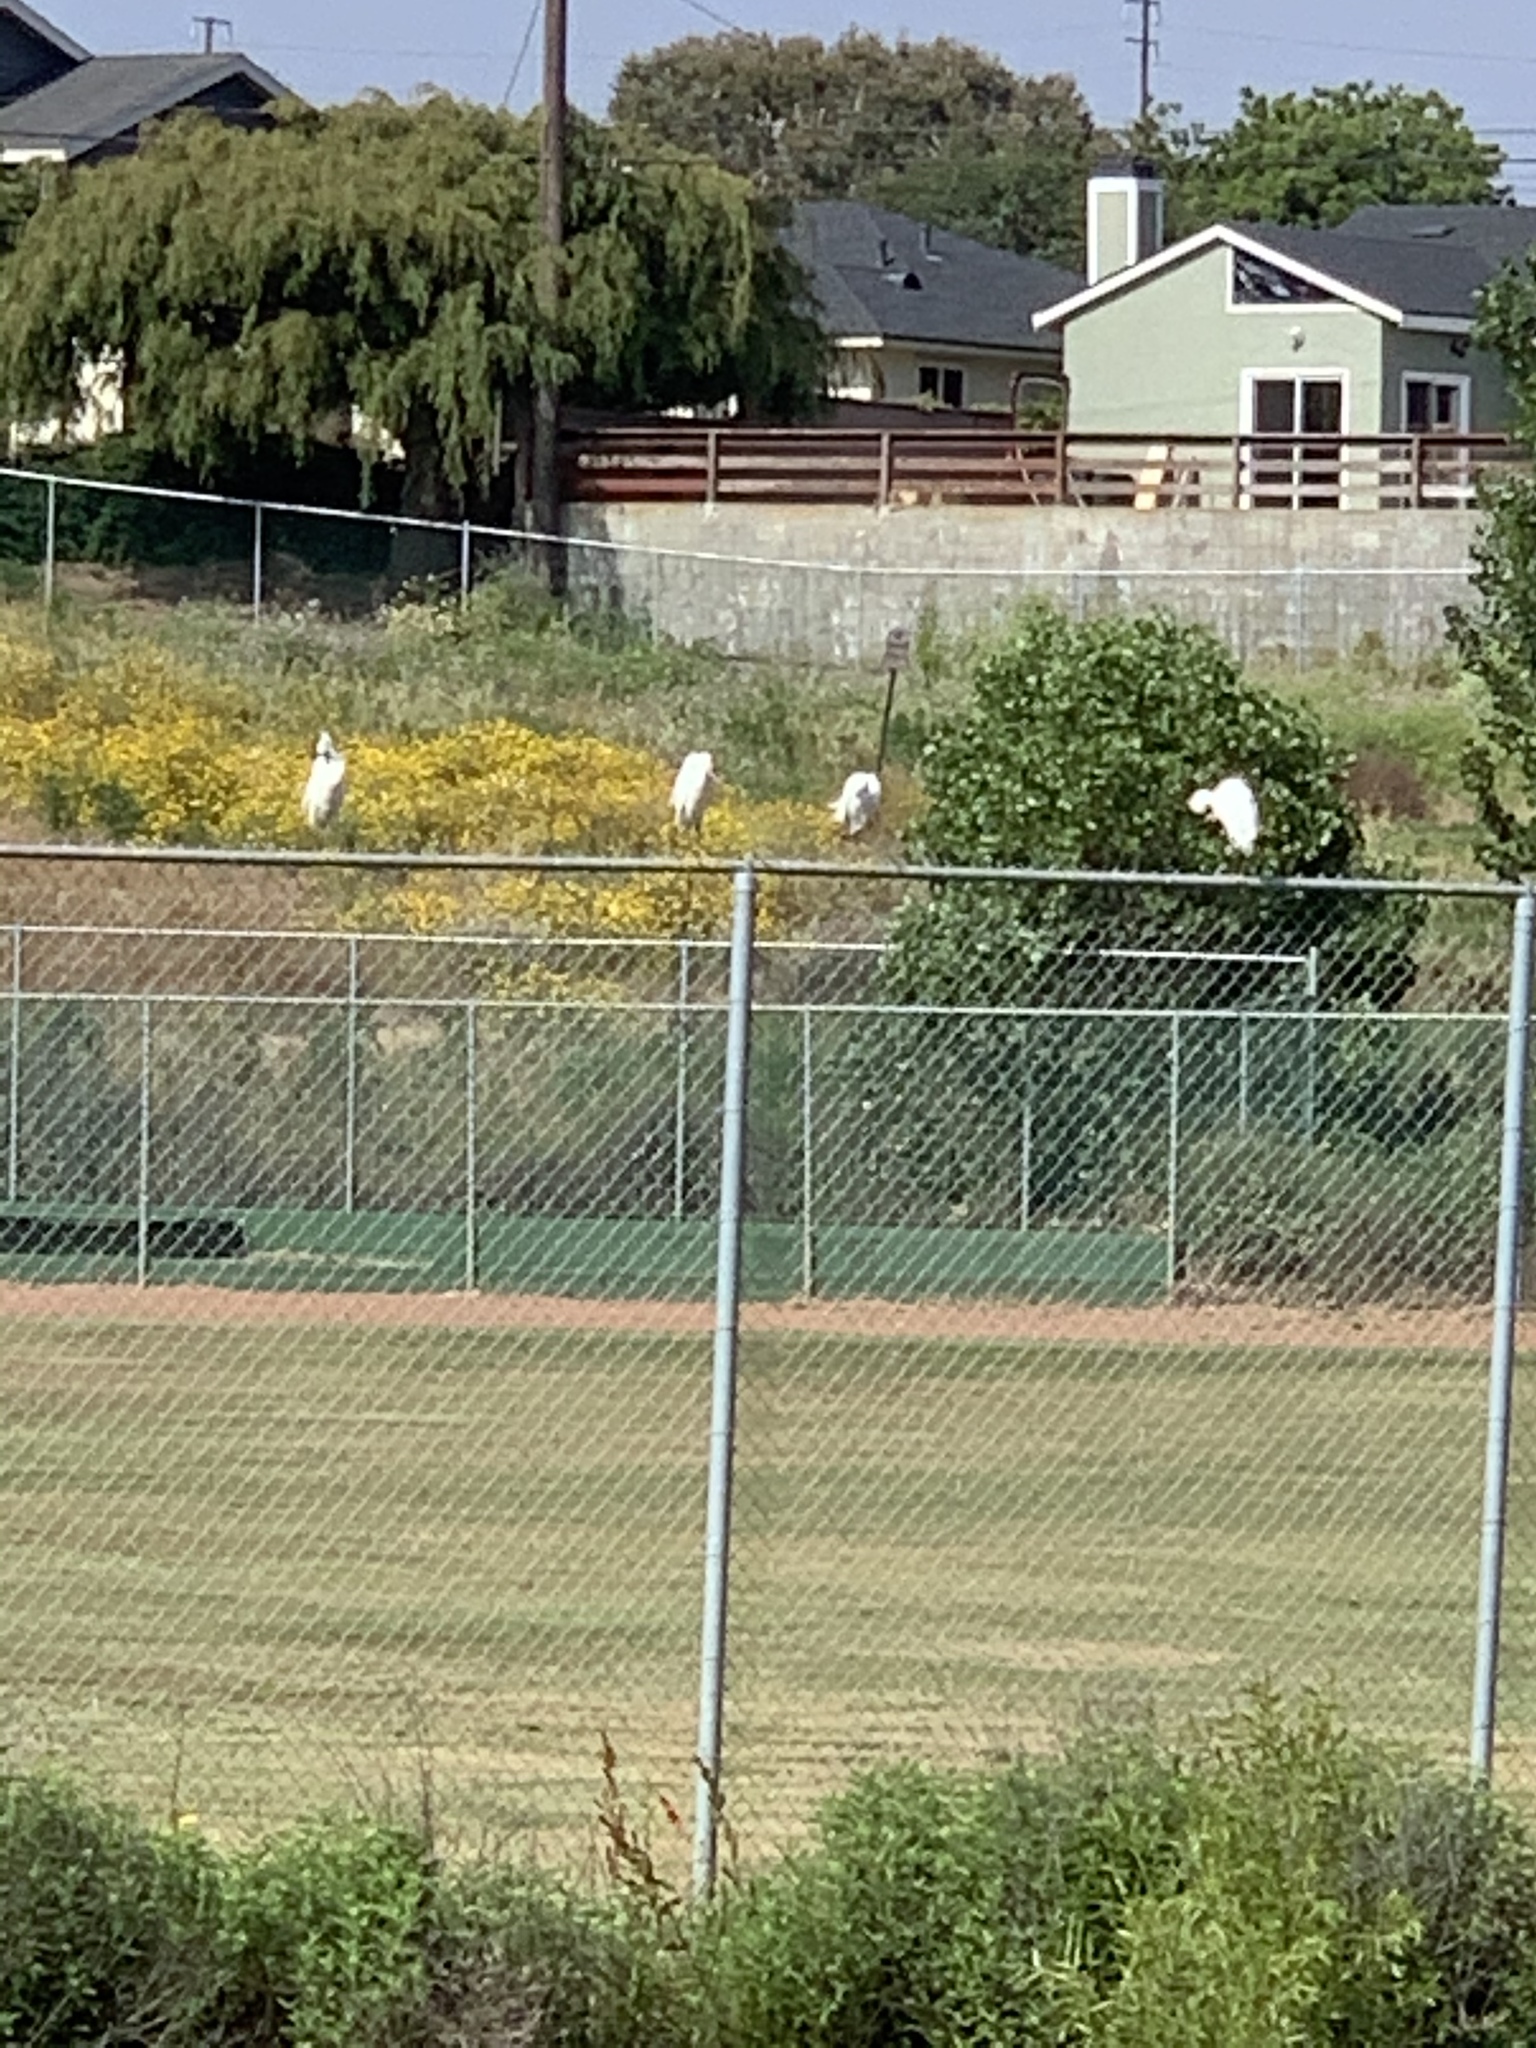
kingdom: Animalia
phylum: Chordata
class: Aves
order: Pelecaniformes
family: Ardeidae
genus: Egretta
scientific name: Egretta thula
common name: Snowy egret
